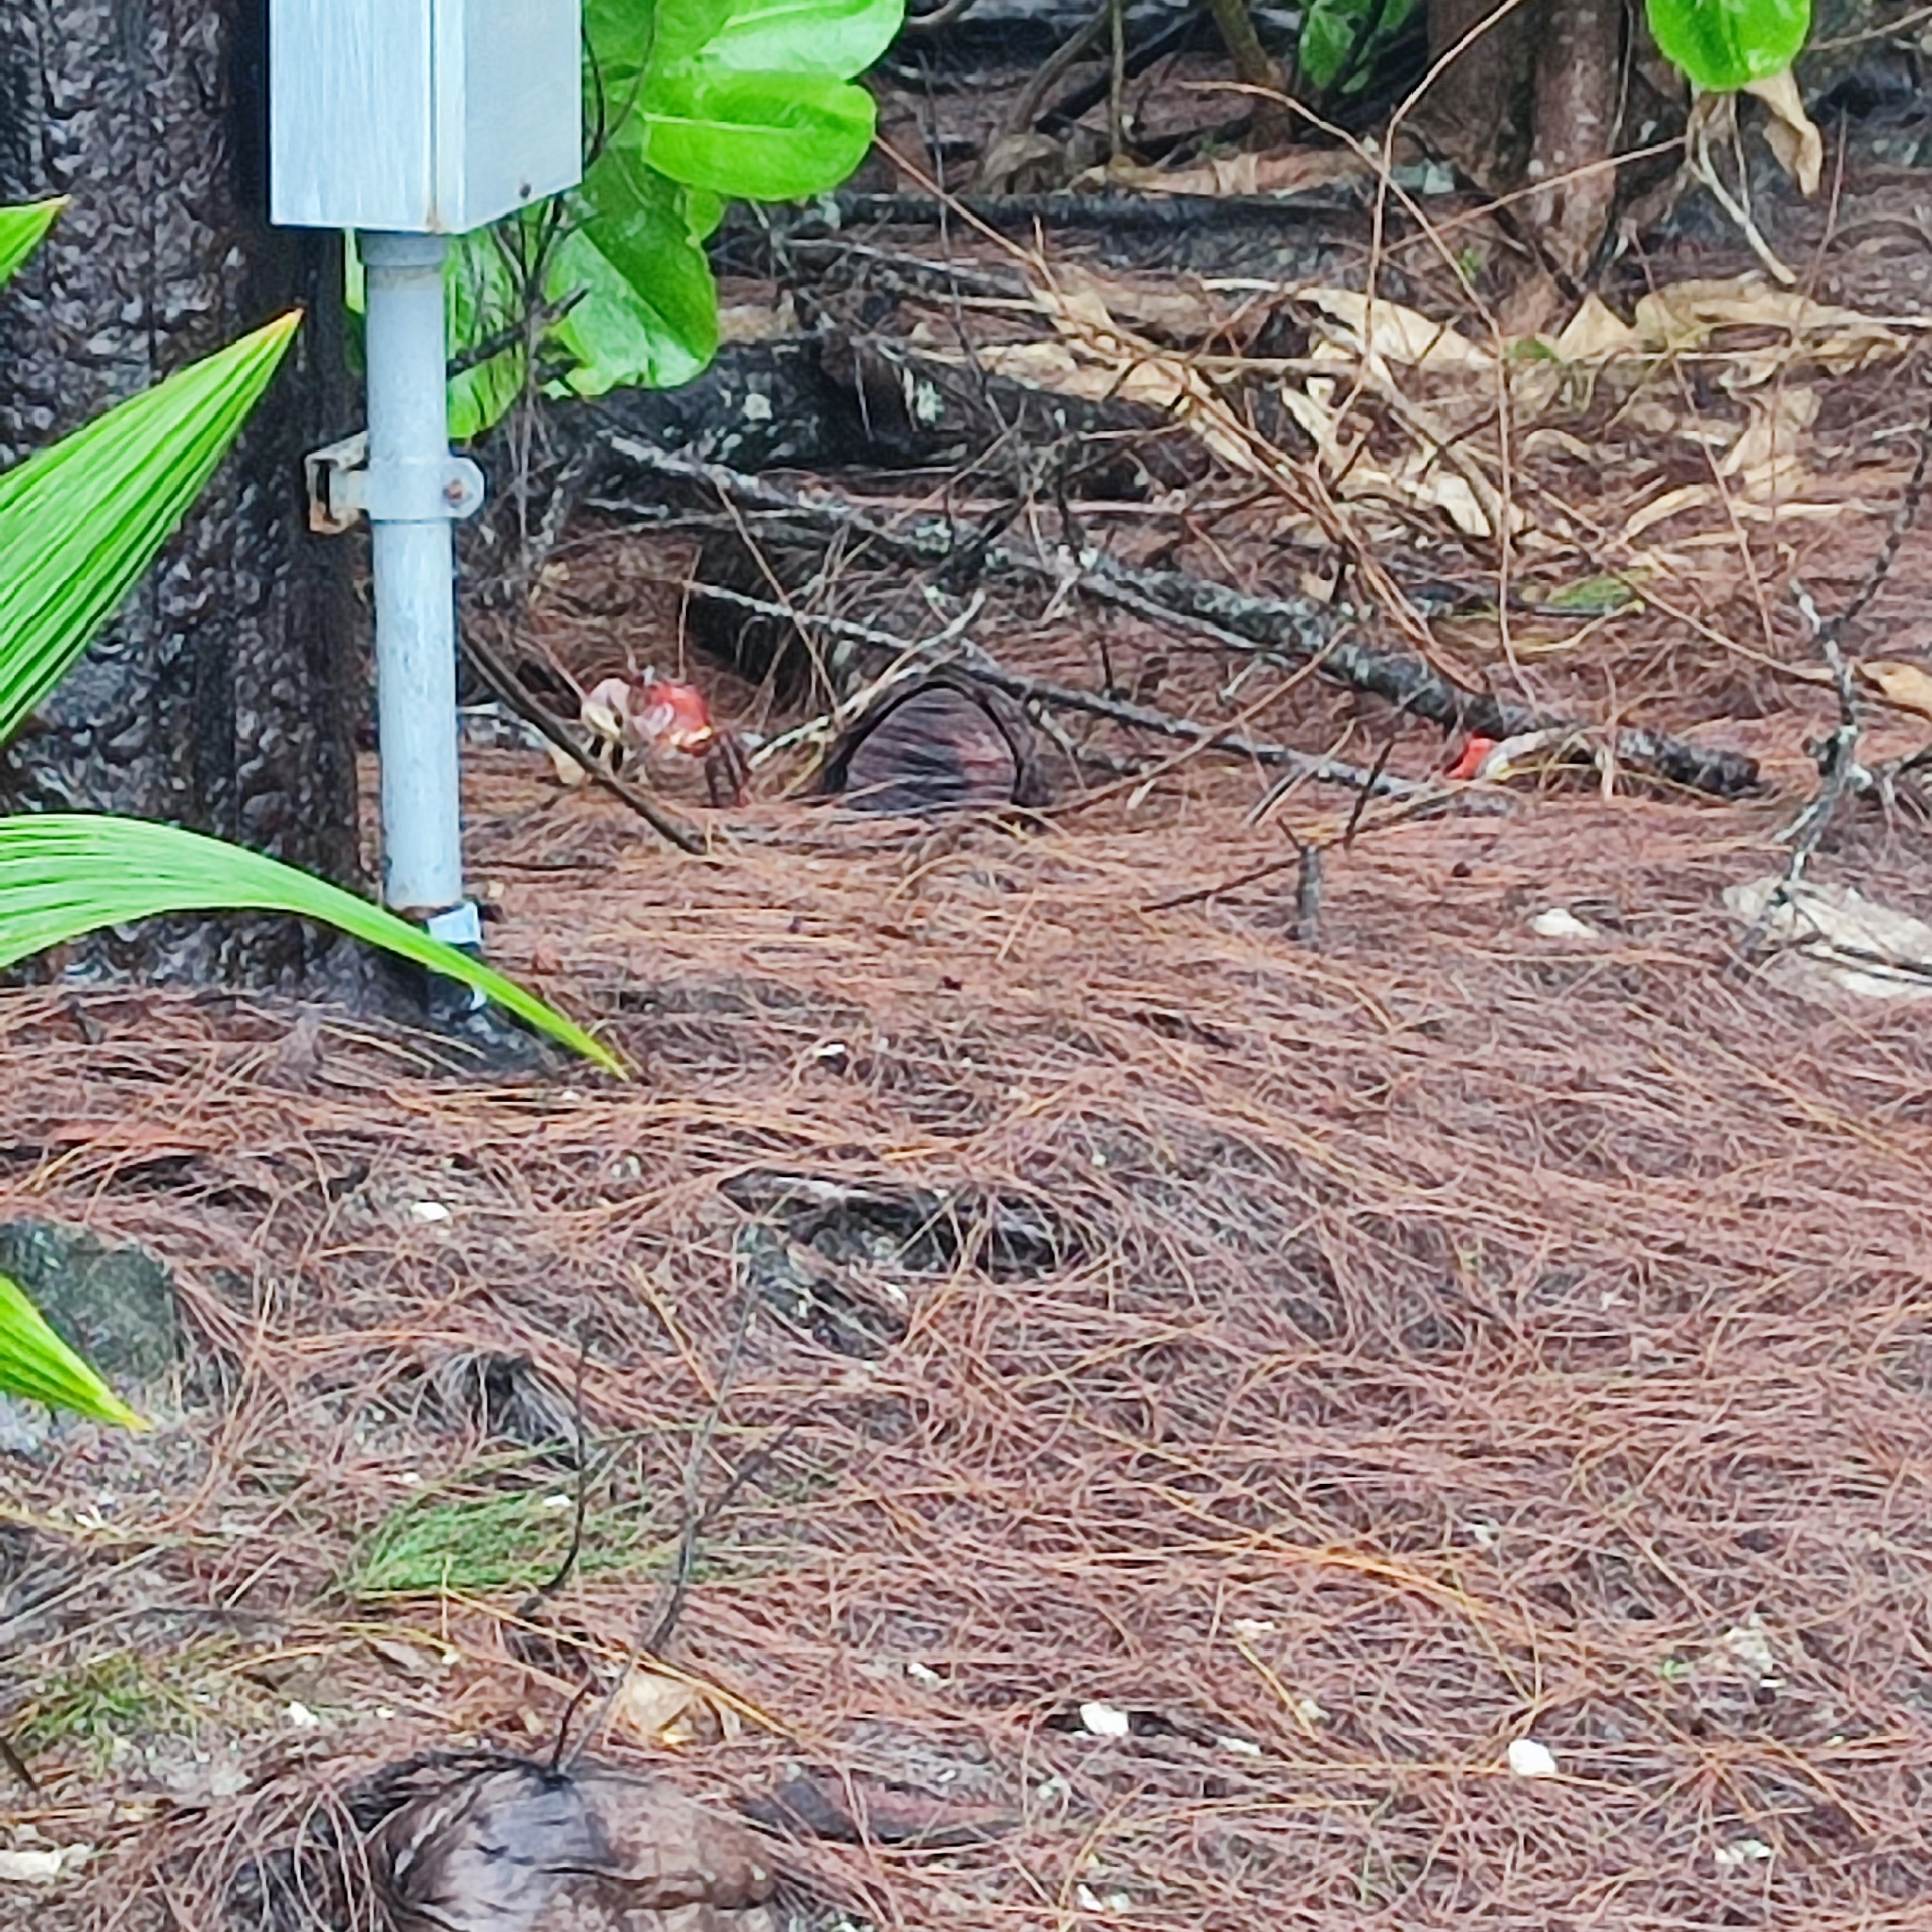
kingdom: Animalia
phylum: Arthropoda
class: Malacostraca
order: Decapoda
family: Gecarcinidae
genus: Cardisoma
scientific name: Cardisoma carnifex
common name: Brown land crab
